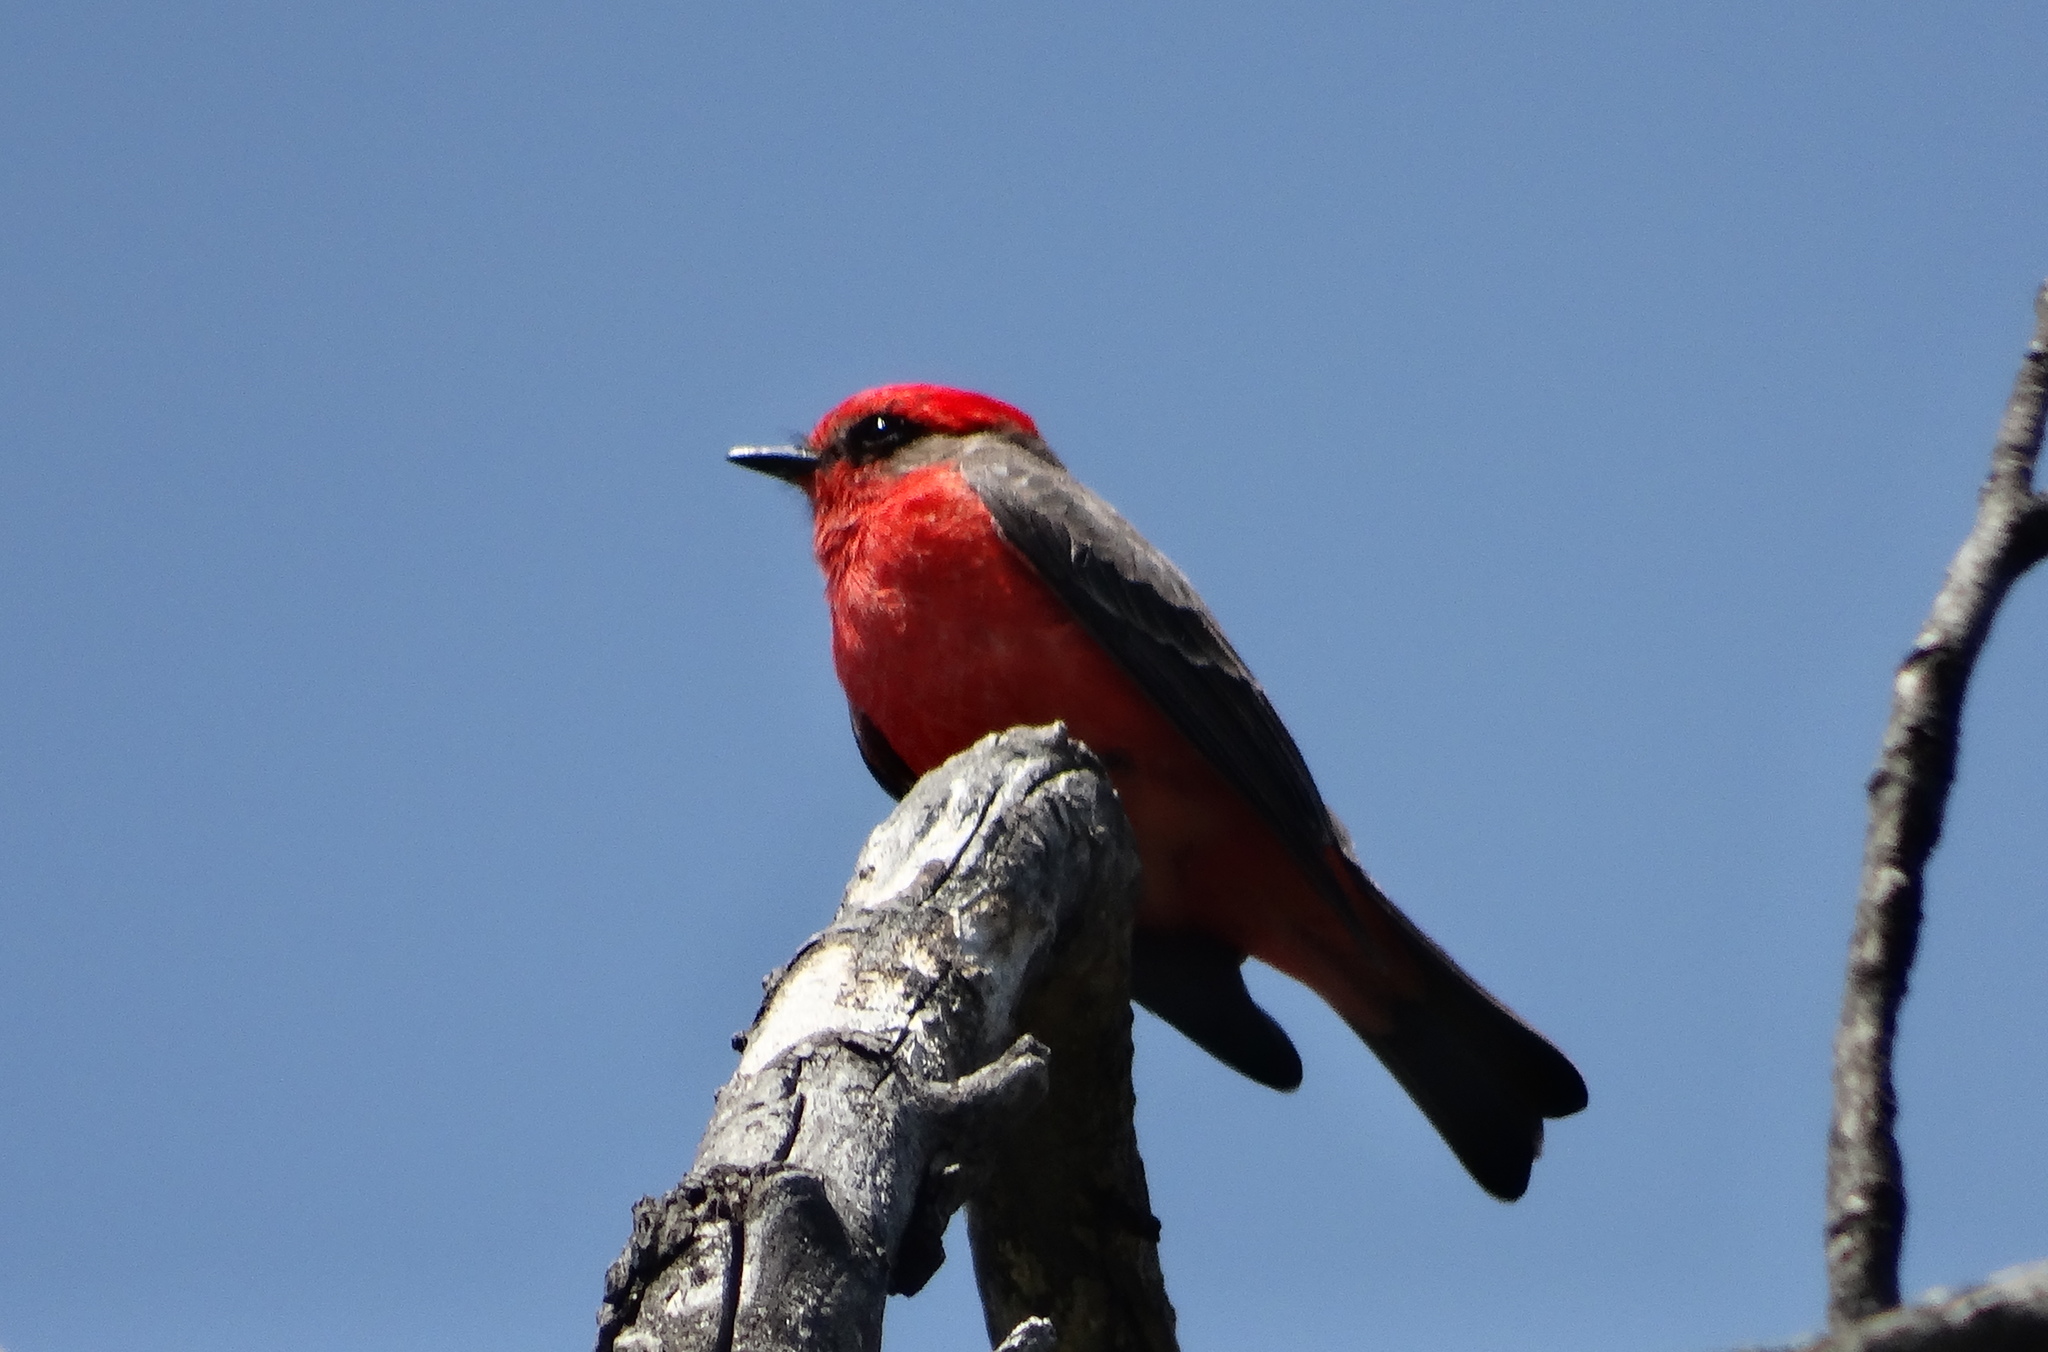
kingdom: Animalia
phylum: Chordata
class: Aves
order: Passeriformes
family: Tyrannidae
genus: Pyrocephalus
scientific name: Pyrocephalus rubinus
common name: Vermilion flycatcher
